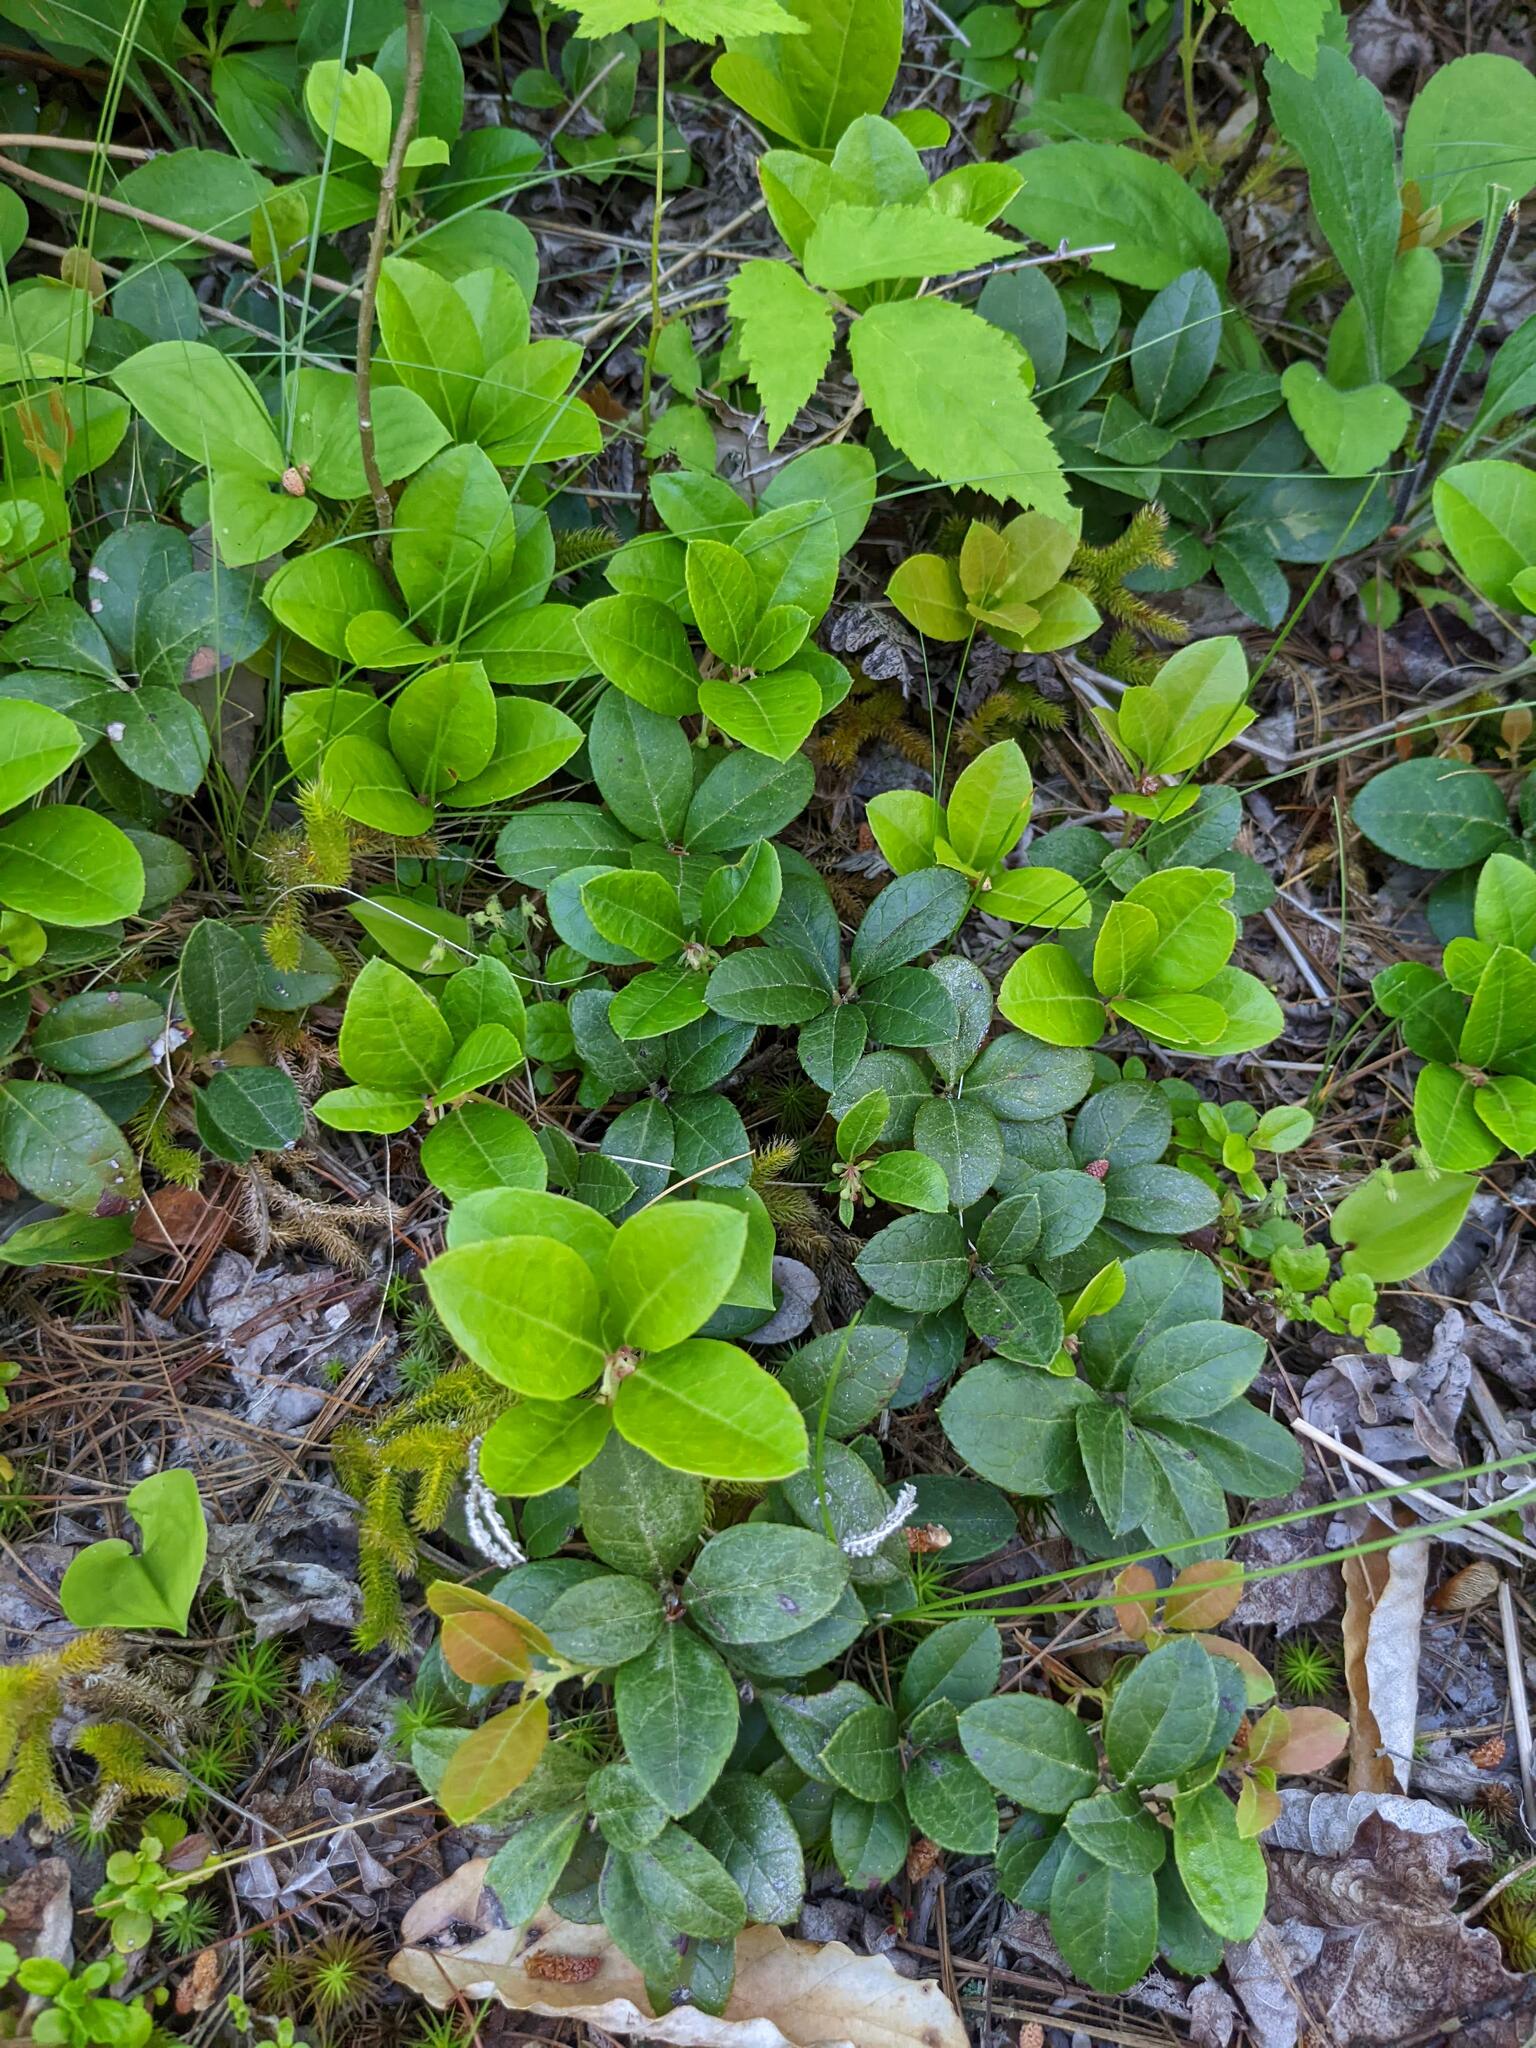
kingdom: Plantae
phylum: Tracheophyta
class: Magnoliopsida
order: Ericales
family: Ericaceae
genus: Gaultheria
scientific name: Gaultheria procumbens
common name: Checkerberry
